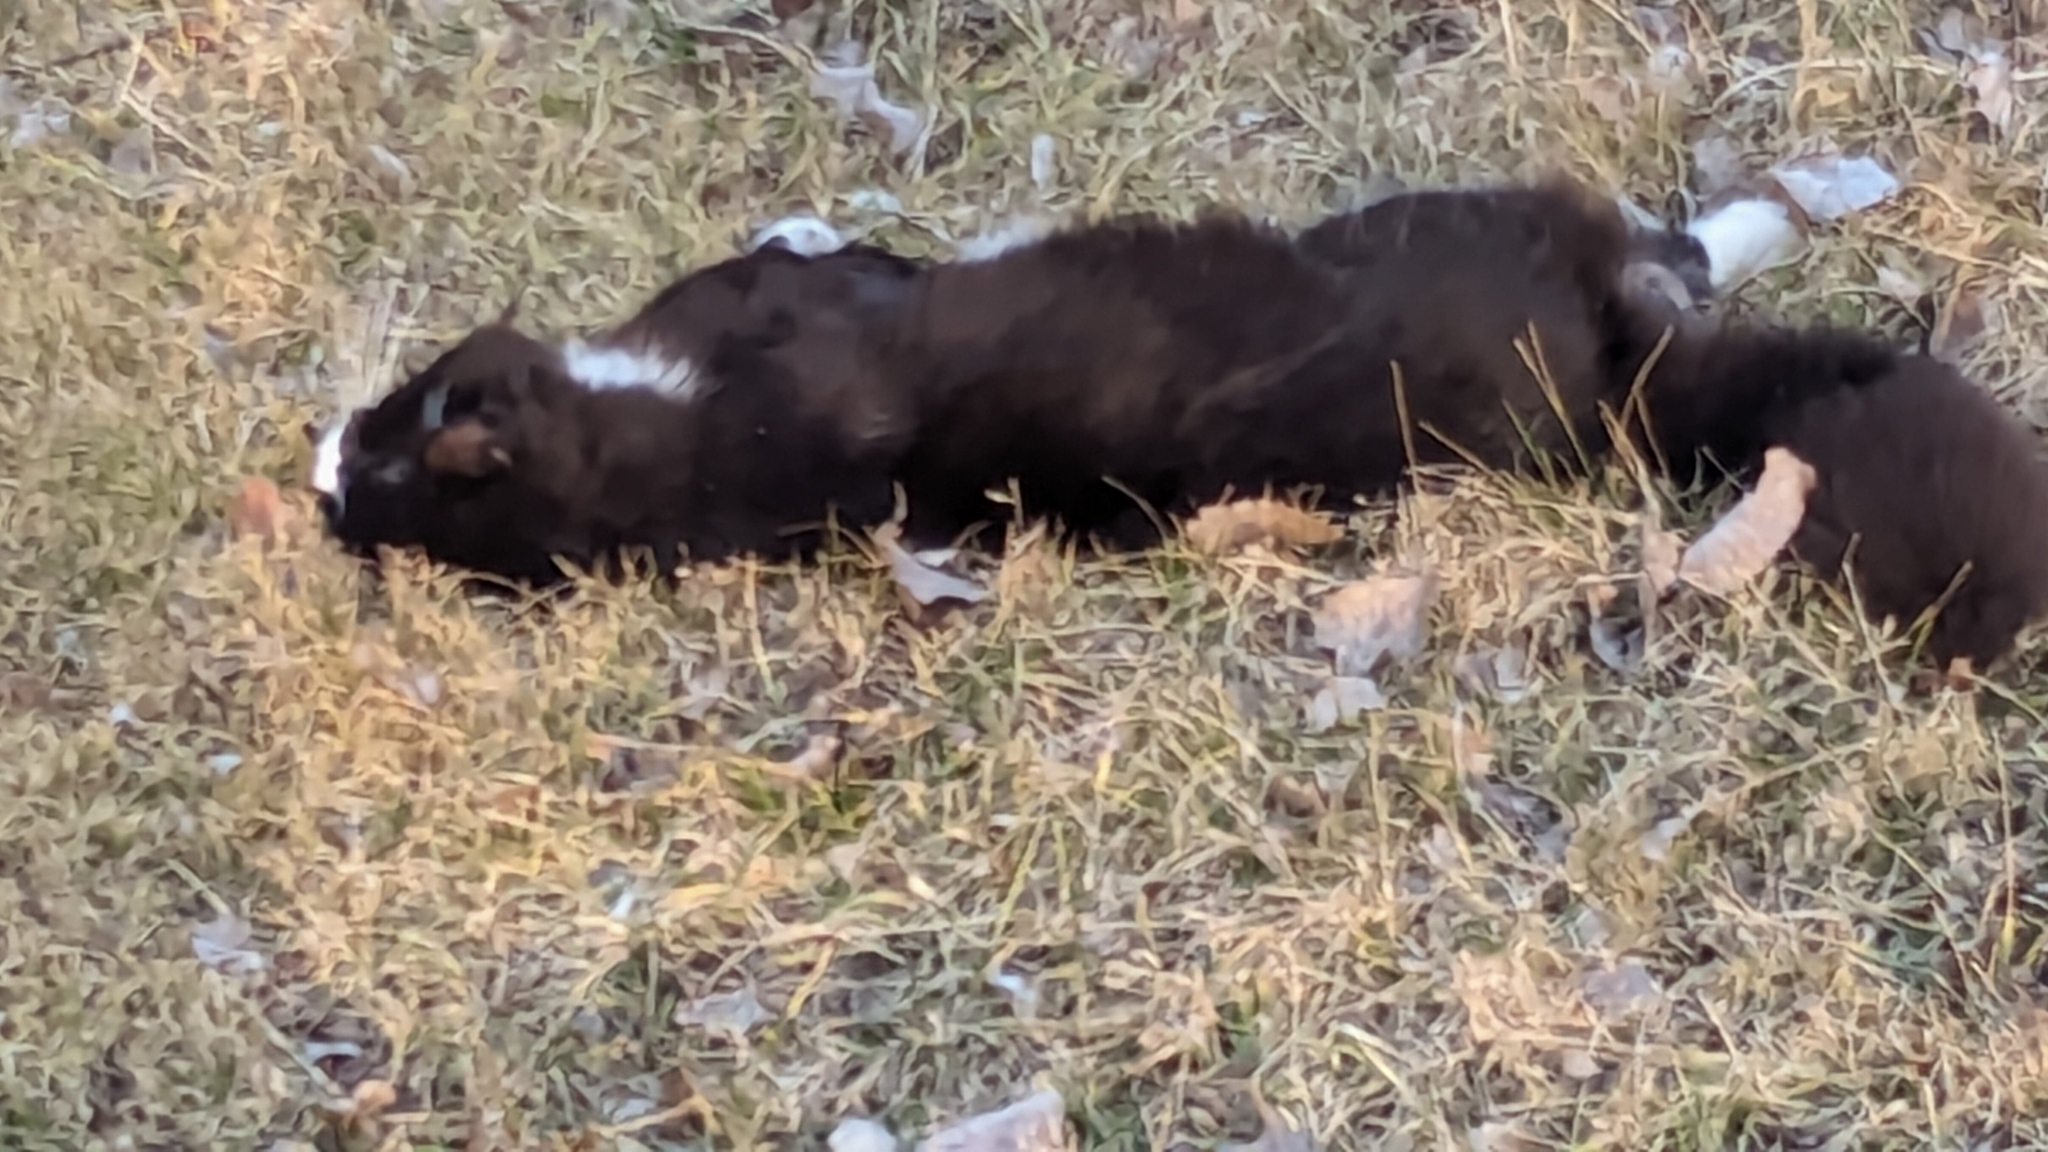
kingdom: Animalia
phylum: Chordata
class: Mammalia
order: Carnivora
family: Felidae
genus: Felis
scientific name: Felis catus
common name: Domestic cat
